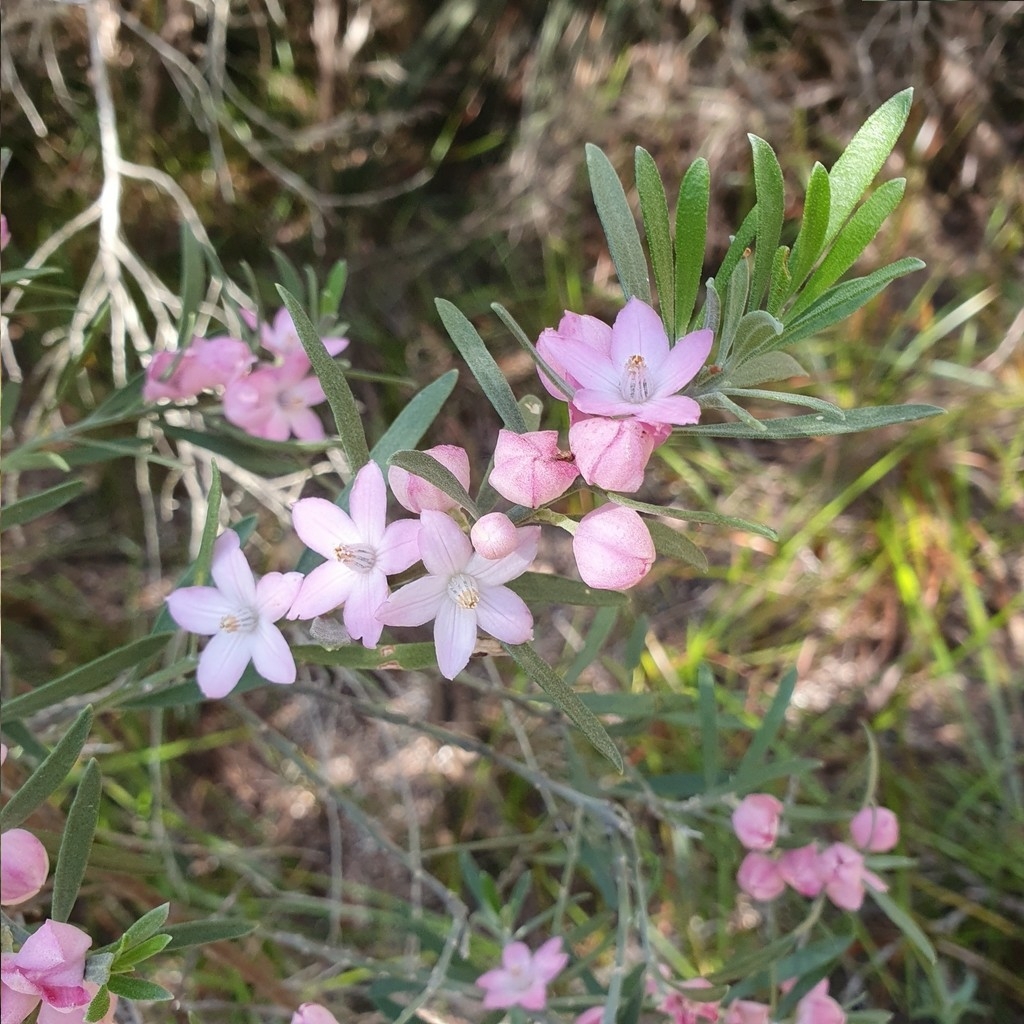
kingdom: Plantae
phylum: Tracheophyta
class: Magnoliopsida
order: Sapindales
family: Rutaceae
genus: Eriostemon
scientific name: Eriostemon australasius
